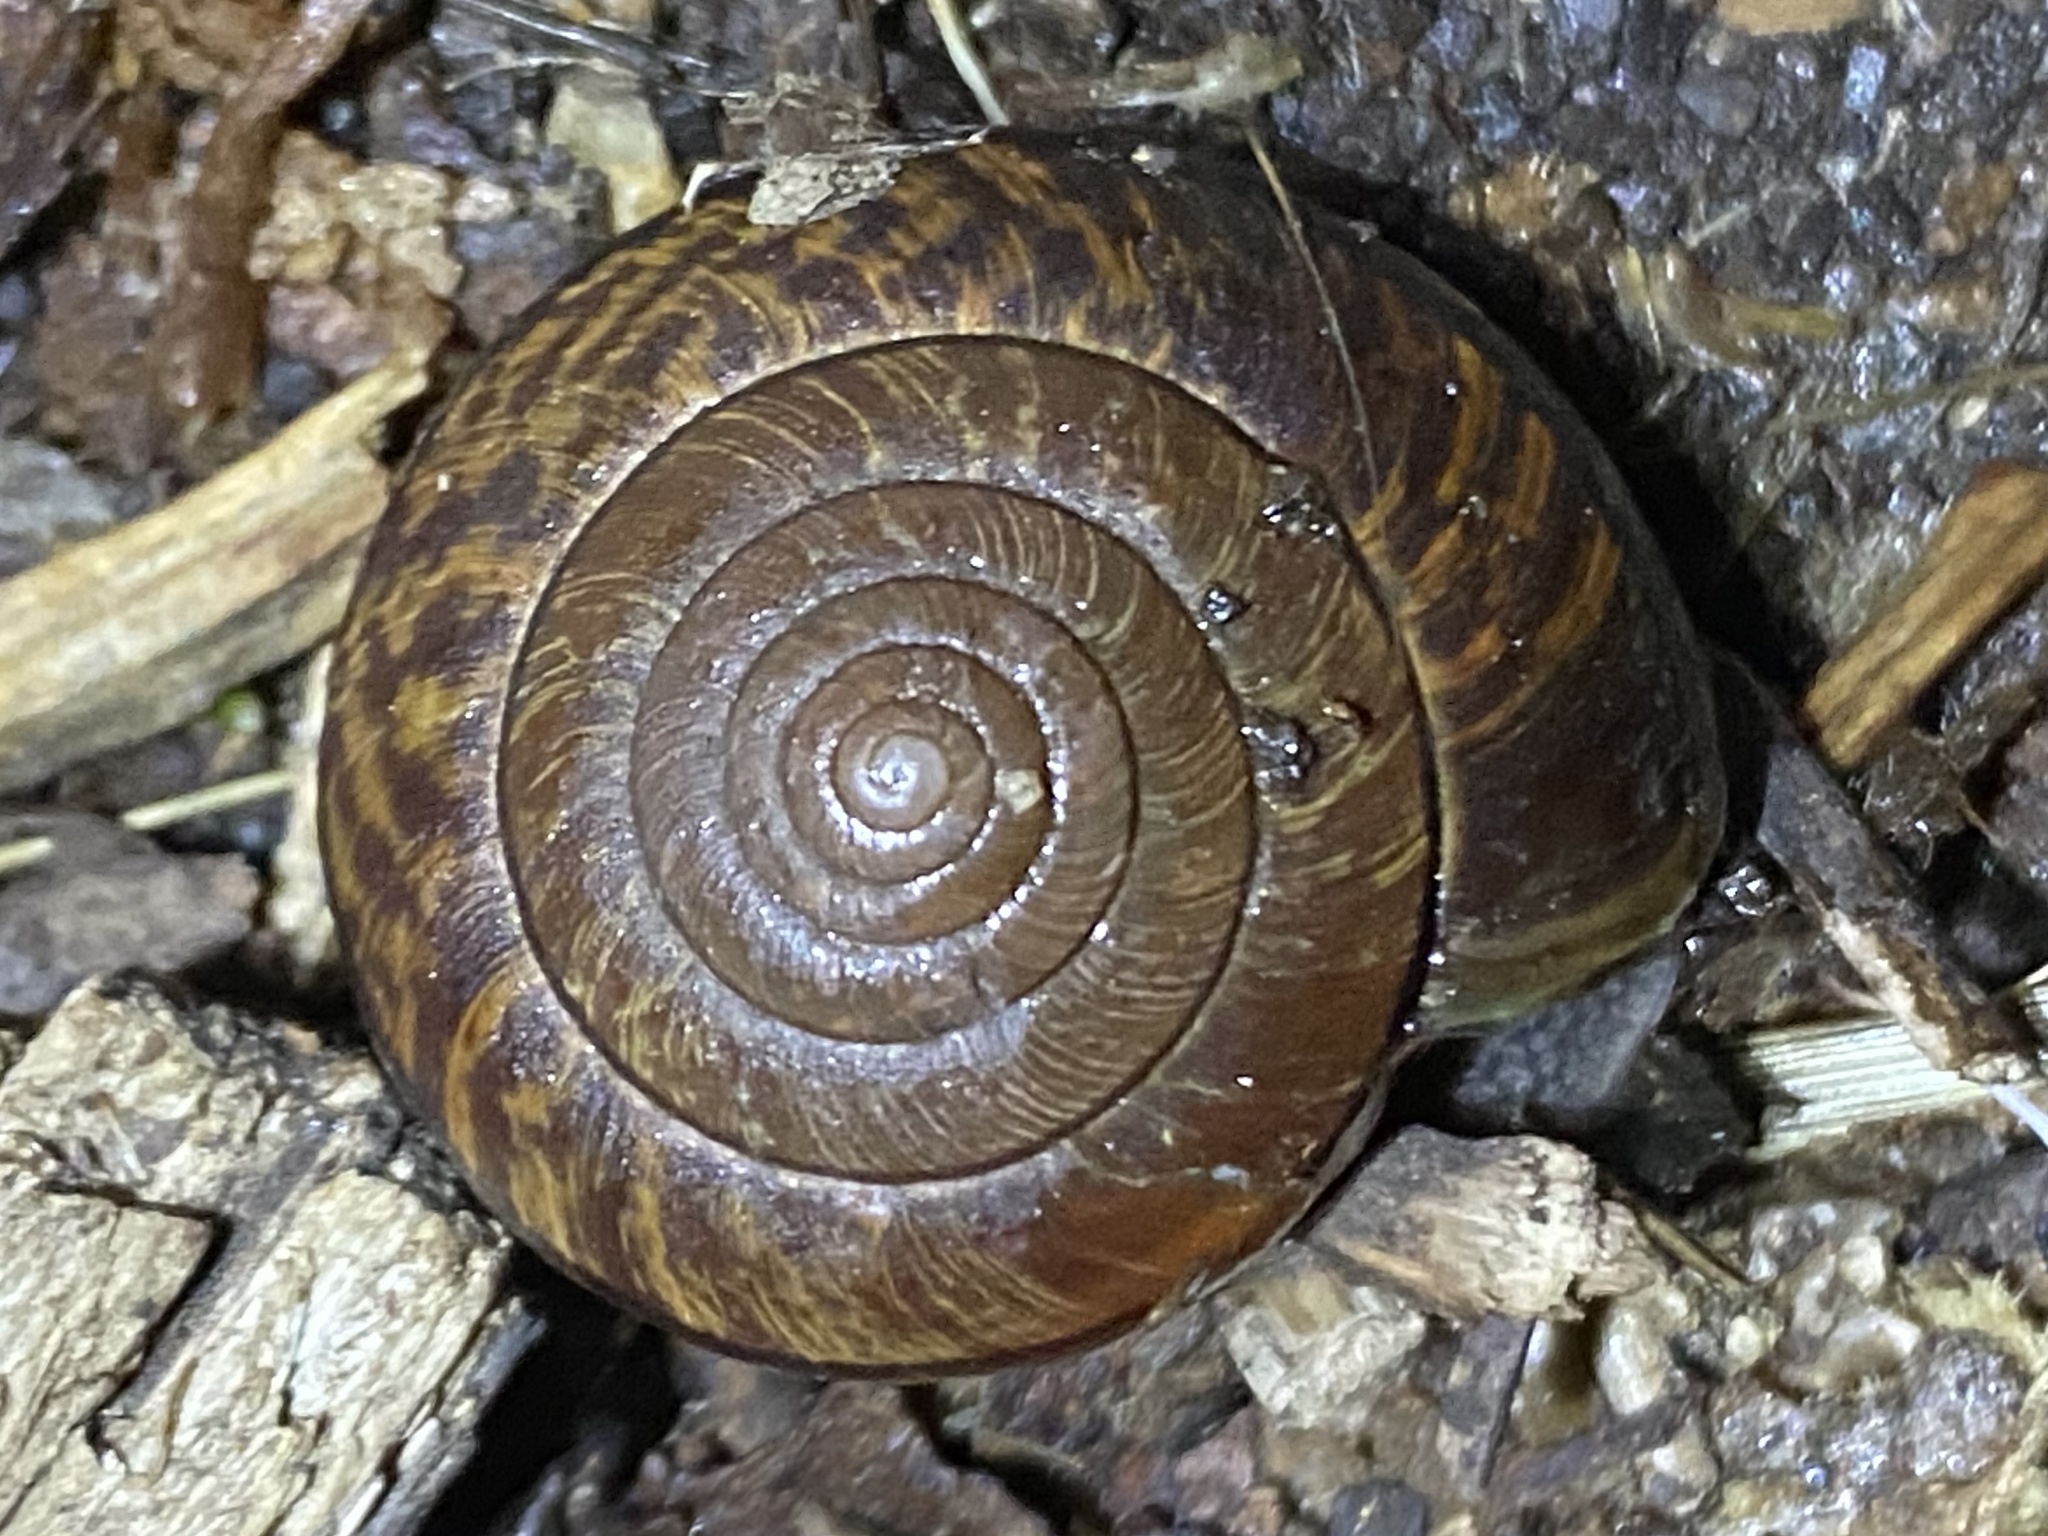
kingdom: Animalia
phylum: Mollusca
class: Gastropoda
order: Stylommatophora
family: Xanthonychidae
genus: Helminthoglypta
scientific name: Helminthoglypta arrosa
